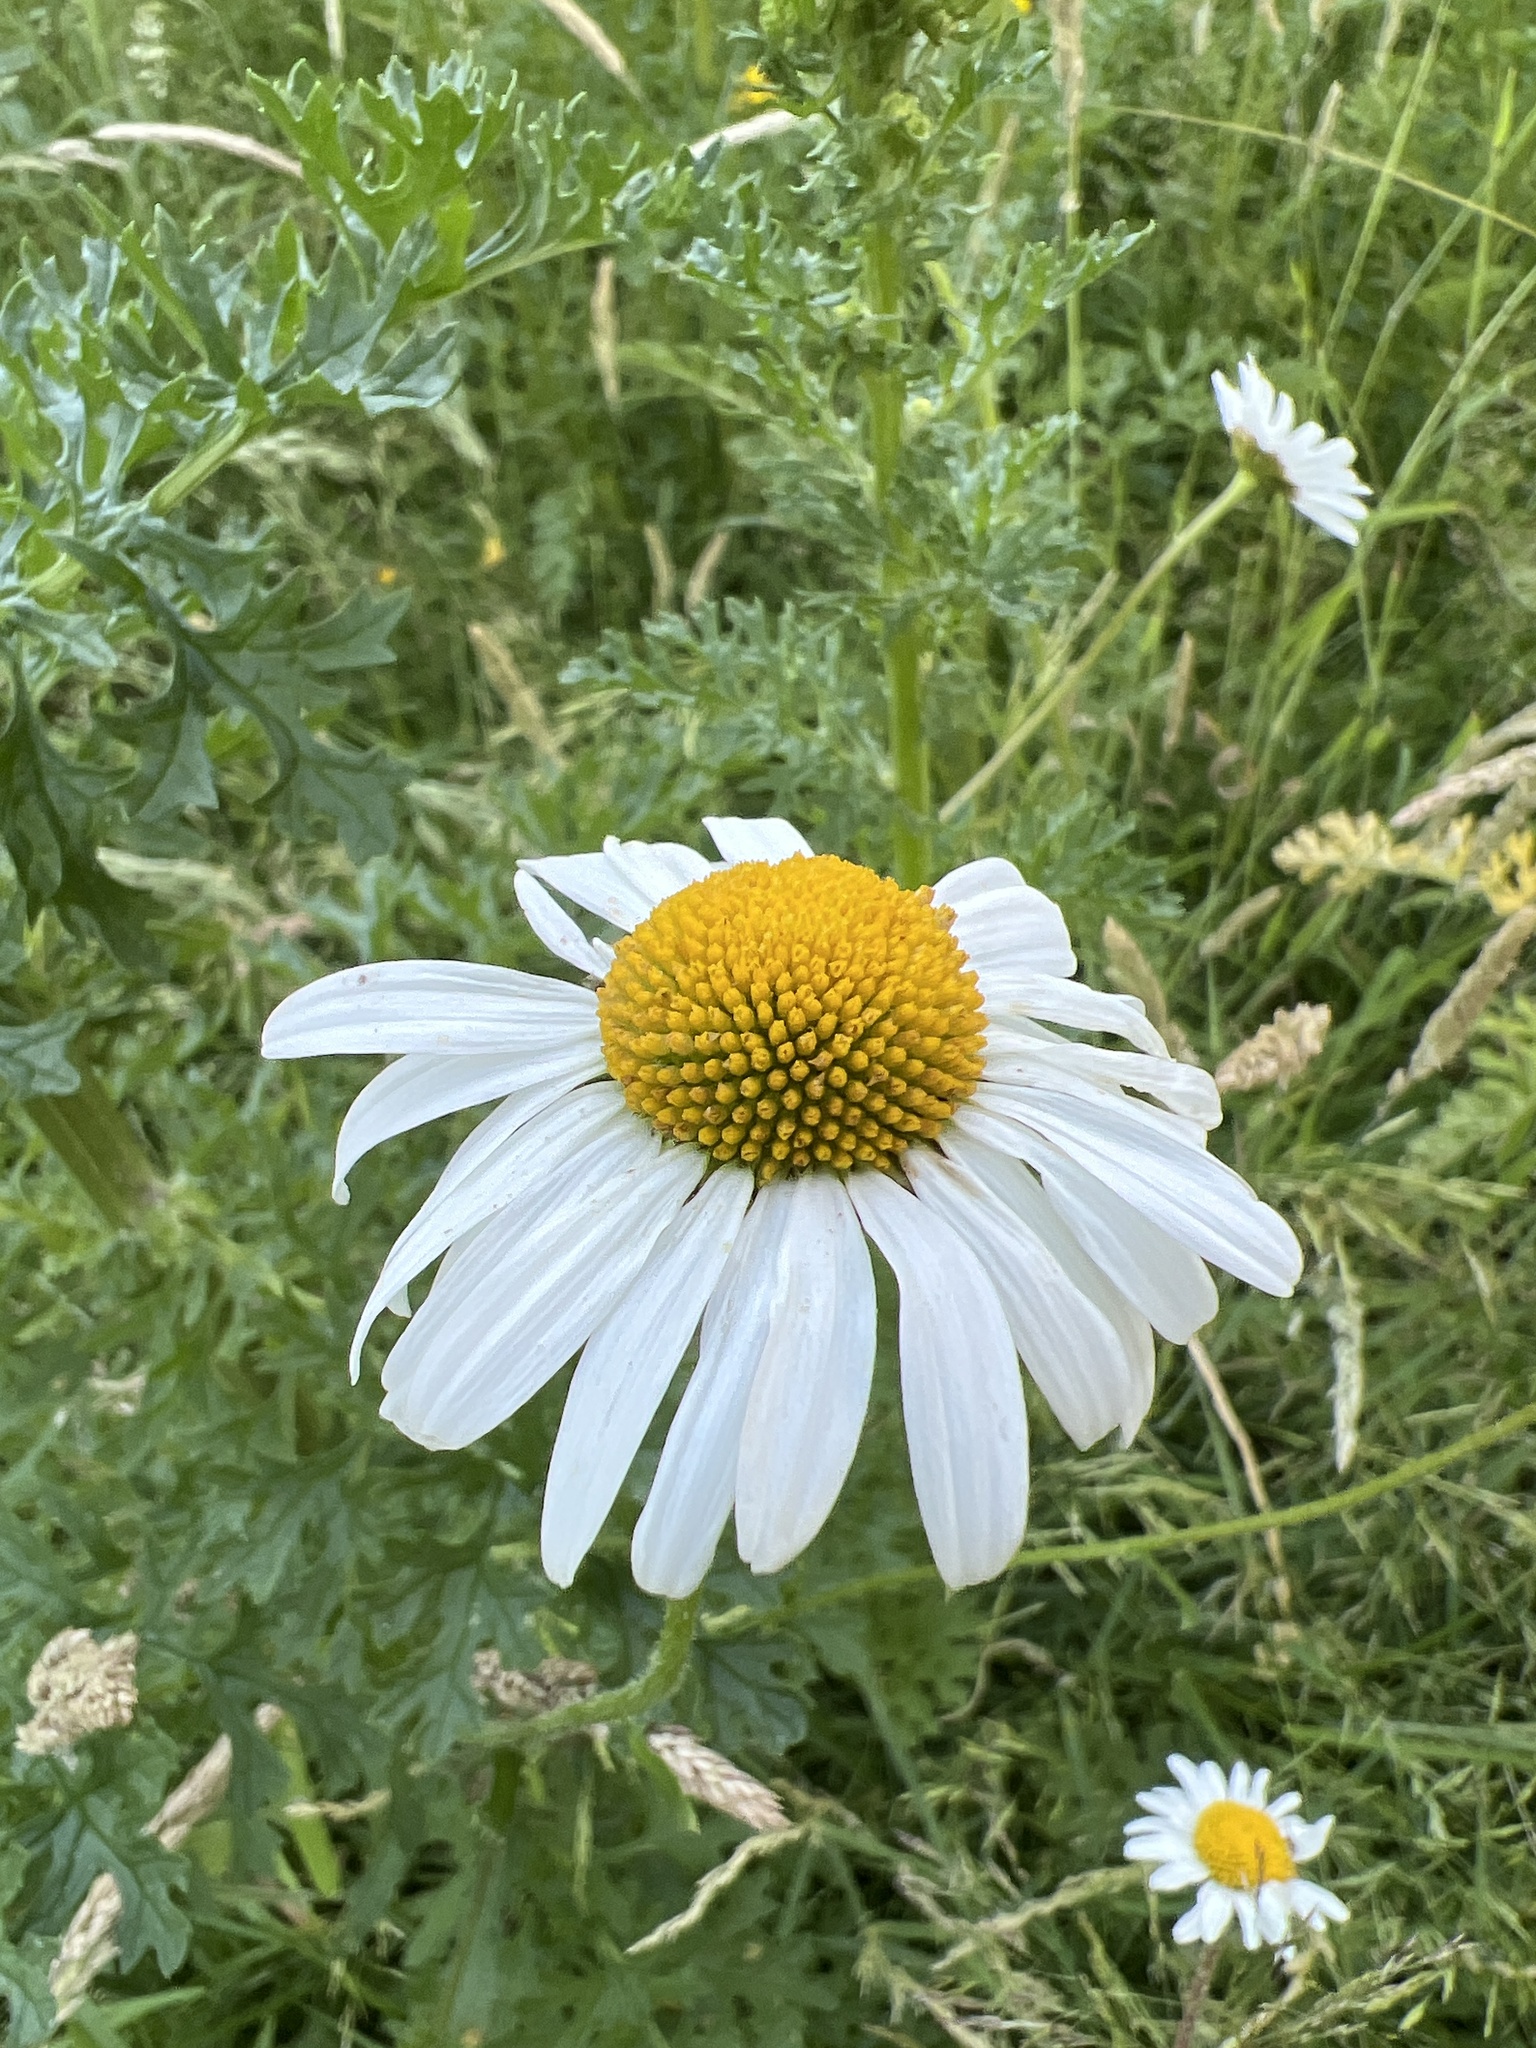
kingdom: Plantae
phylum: Tracheophyta
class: Magnoliopsida
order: Asterales
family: Asteraceae
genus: Leucanthemum
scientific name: Leucanthemum vulgare
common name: Oxeye daisy
